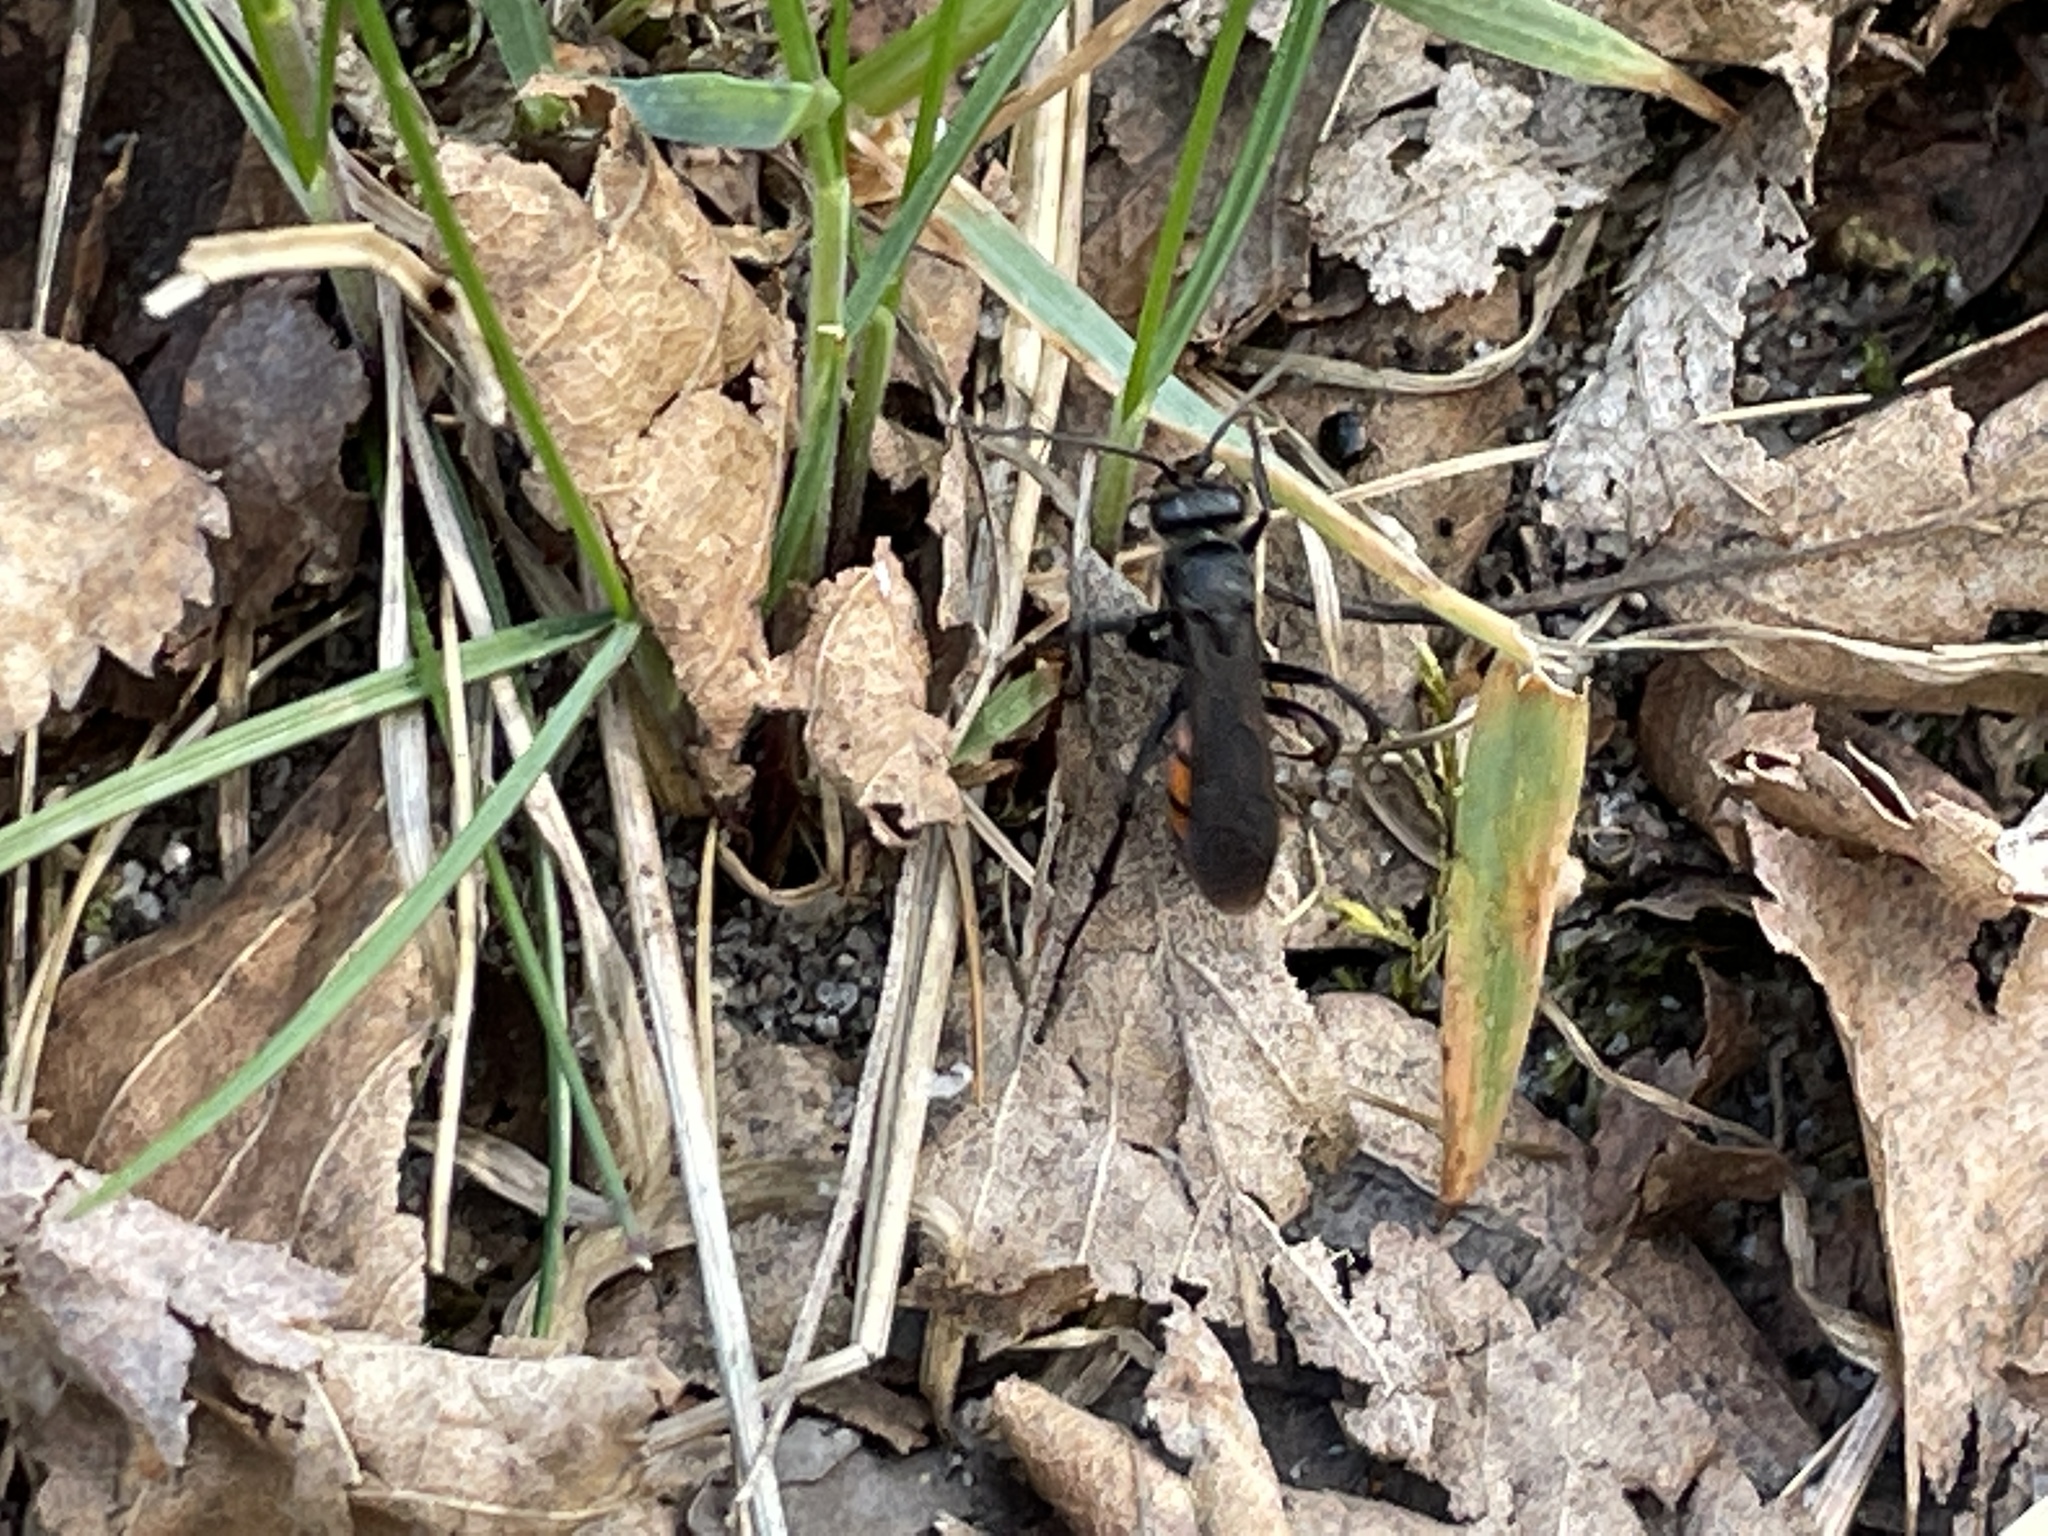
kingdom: Animalia
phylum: Arthropoda
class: Insecta
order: Hymenoptera
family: Pompilidae
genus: Anoplius
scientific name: Anoplius viaticus
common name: Black banded spider wasp
